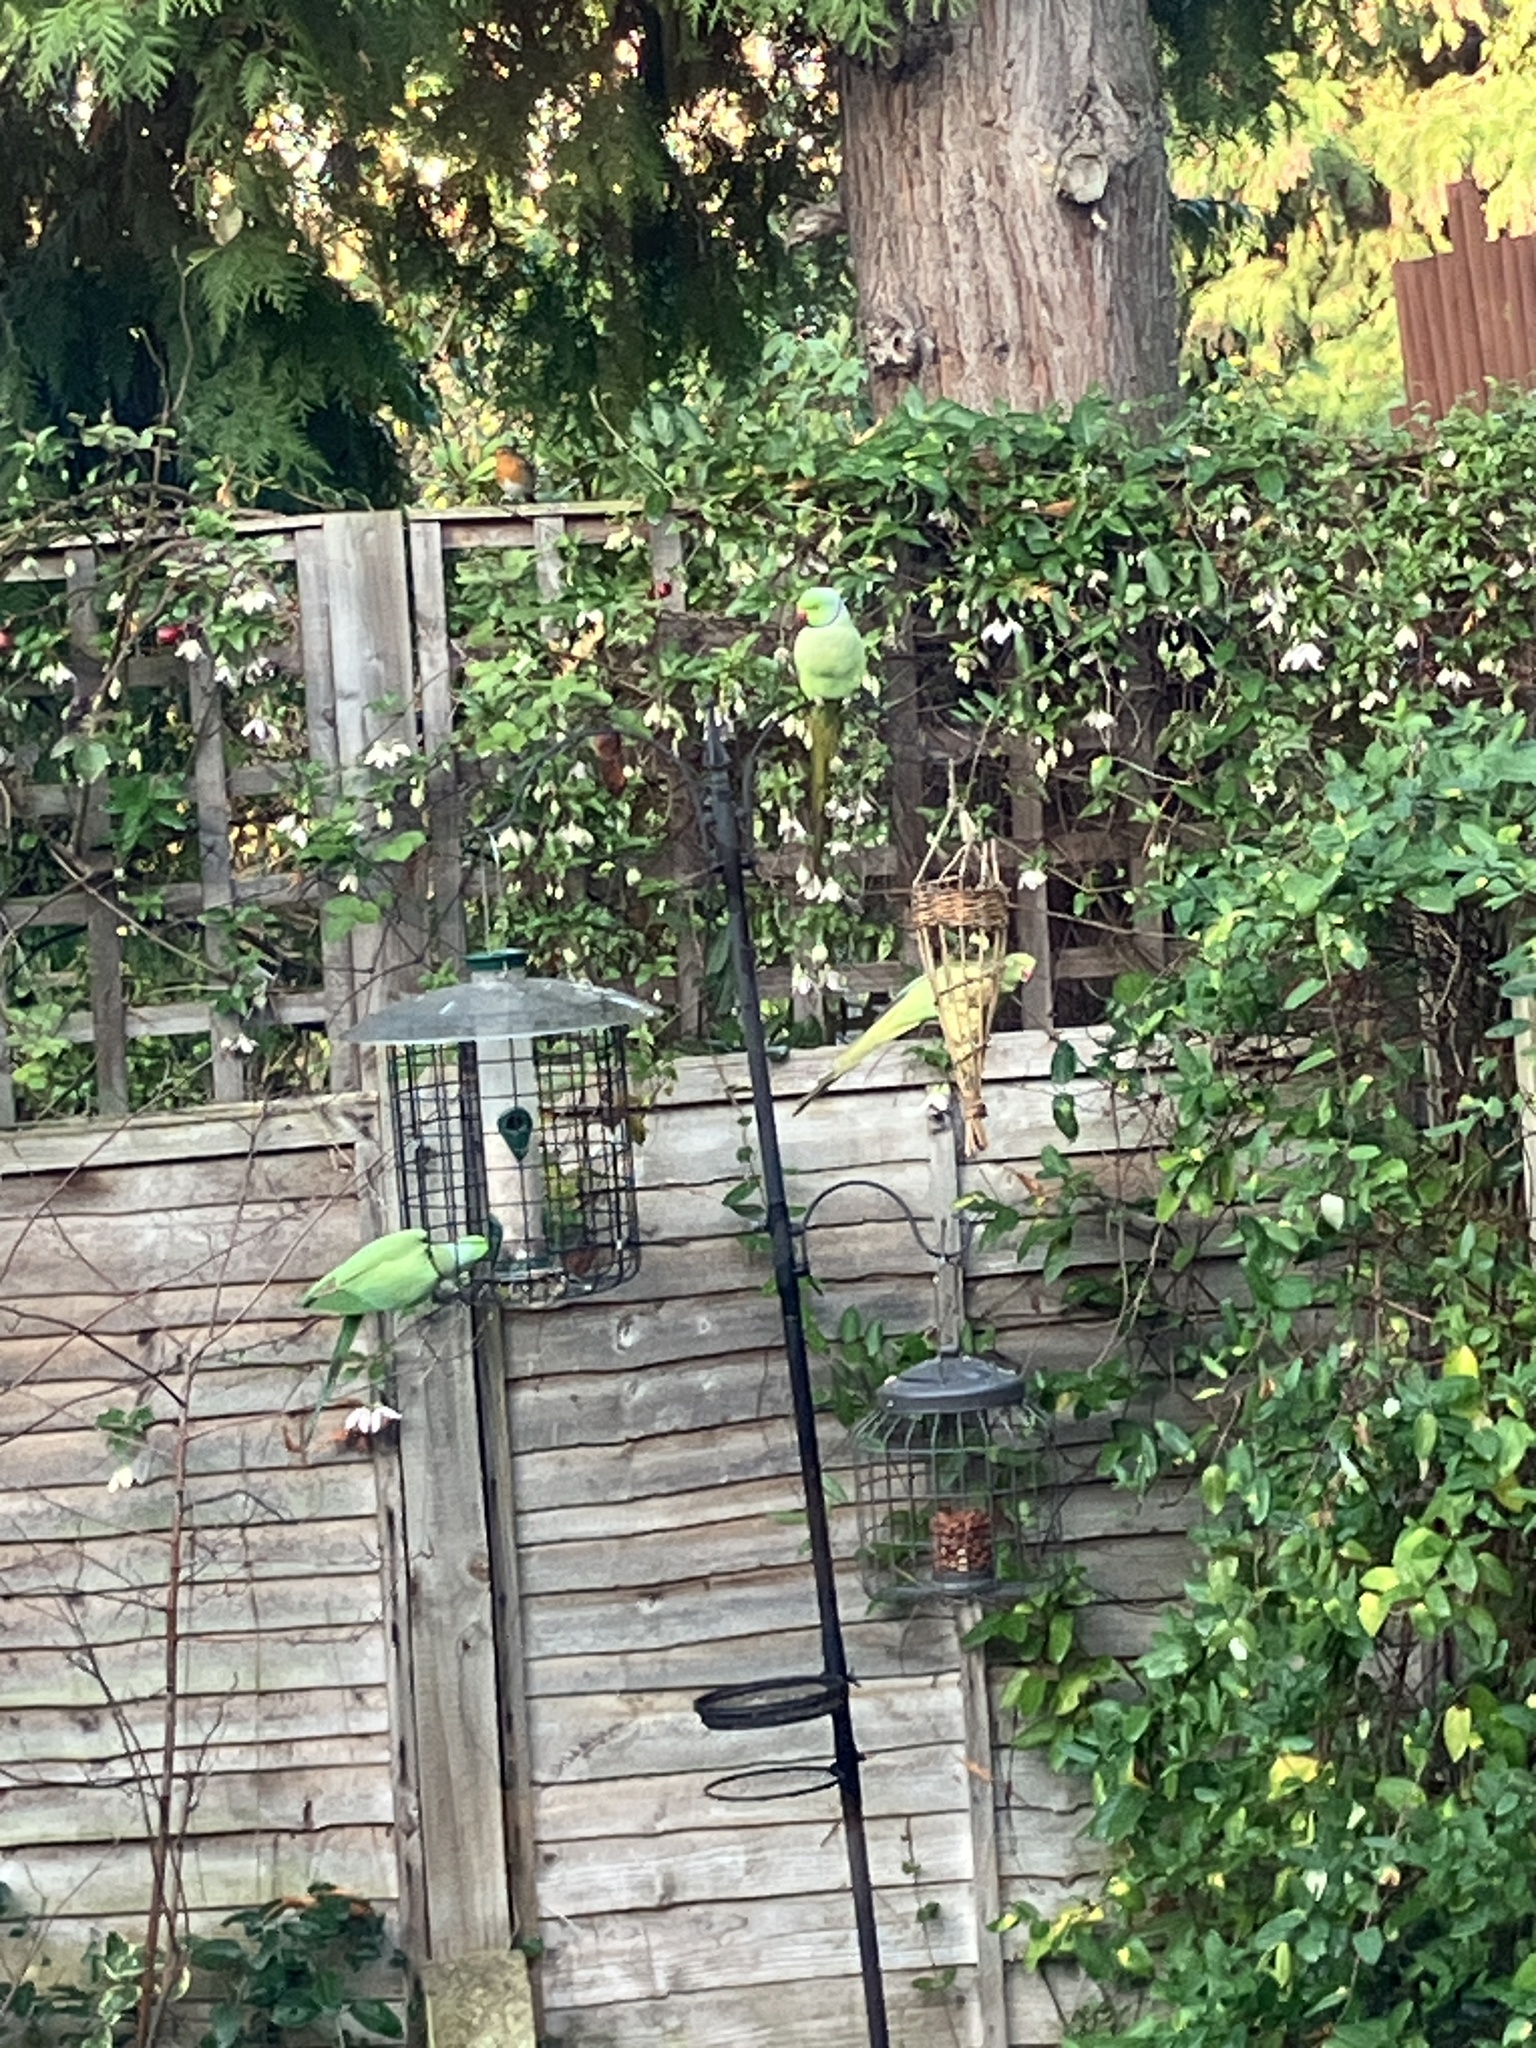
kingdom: Animalia
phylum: Chordata
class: Aves
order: Psittaciformes
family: Psittacidae
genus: Psittacula
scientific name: Psittacula krameri
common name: Rose-ringed parakeet
